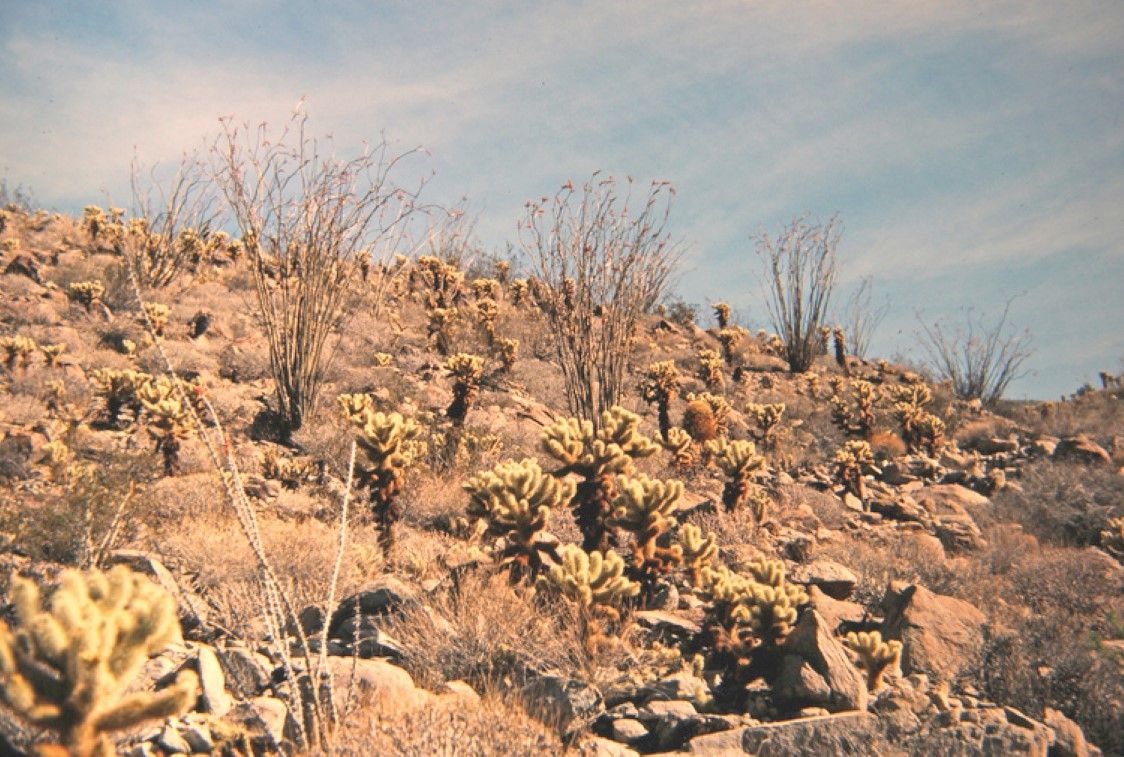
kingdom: Plantae
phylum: Tracheophyta
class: Magnoliopsida
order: Ericales
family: Fouquieriaceae
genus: Fouquieria
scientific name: Fouquieria splendens
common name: Vine-cactus
